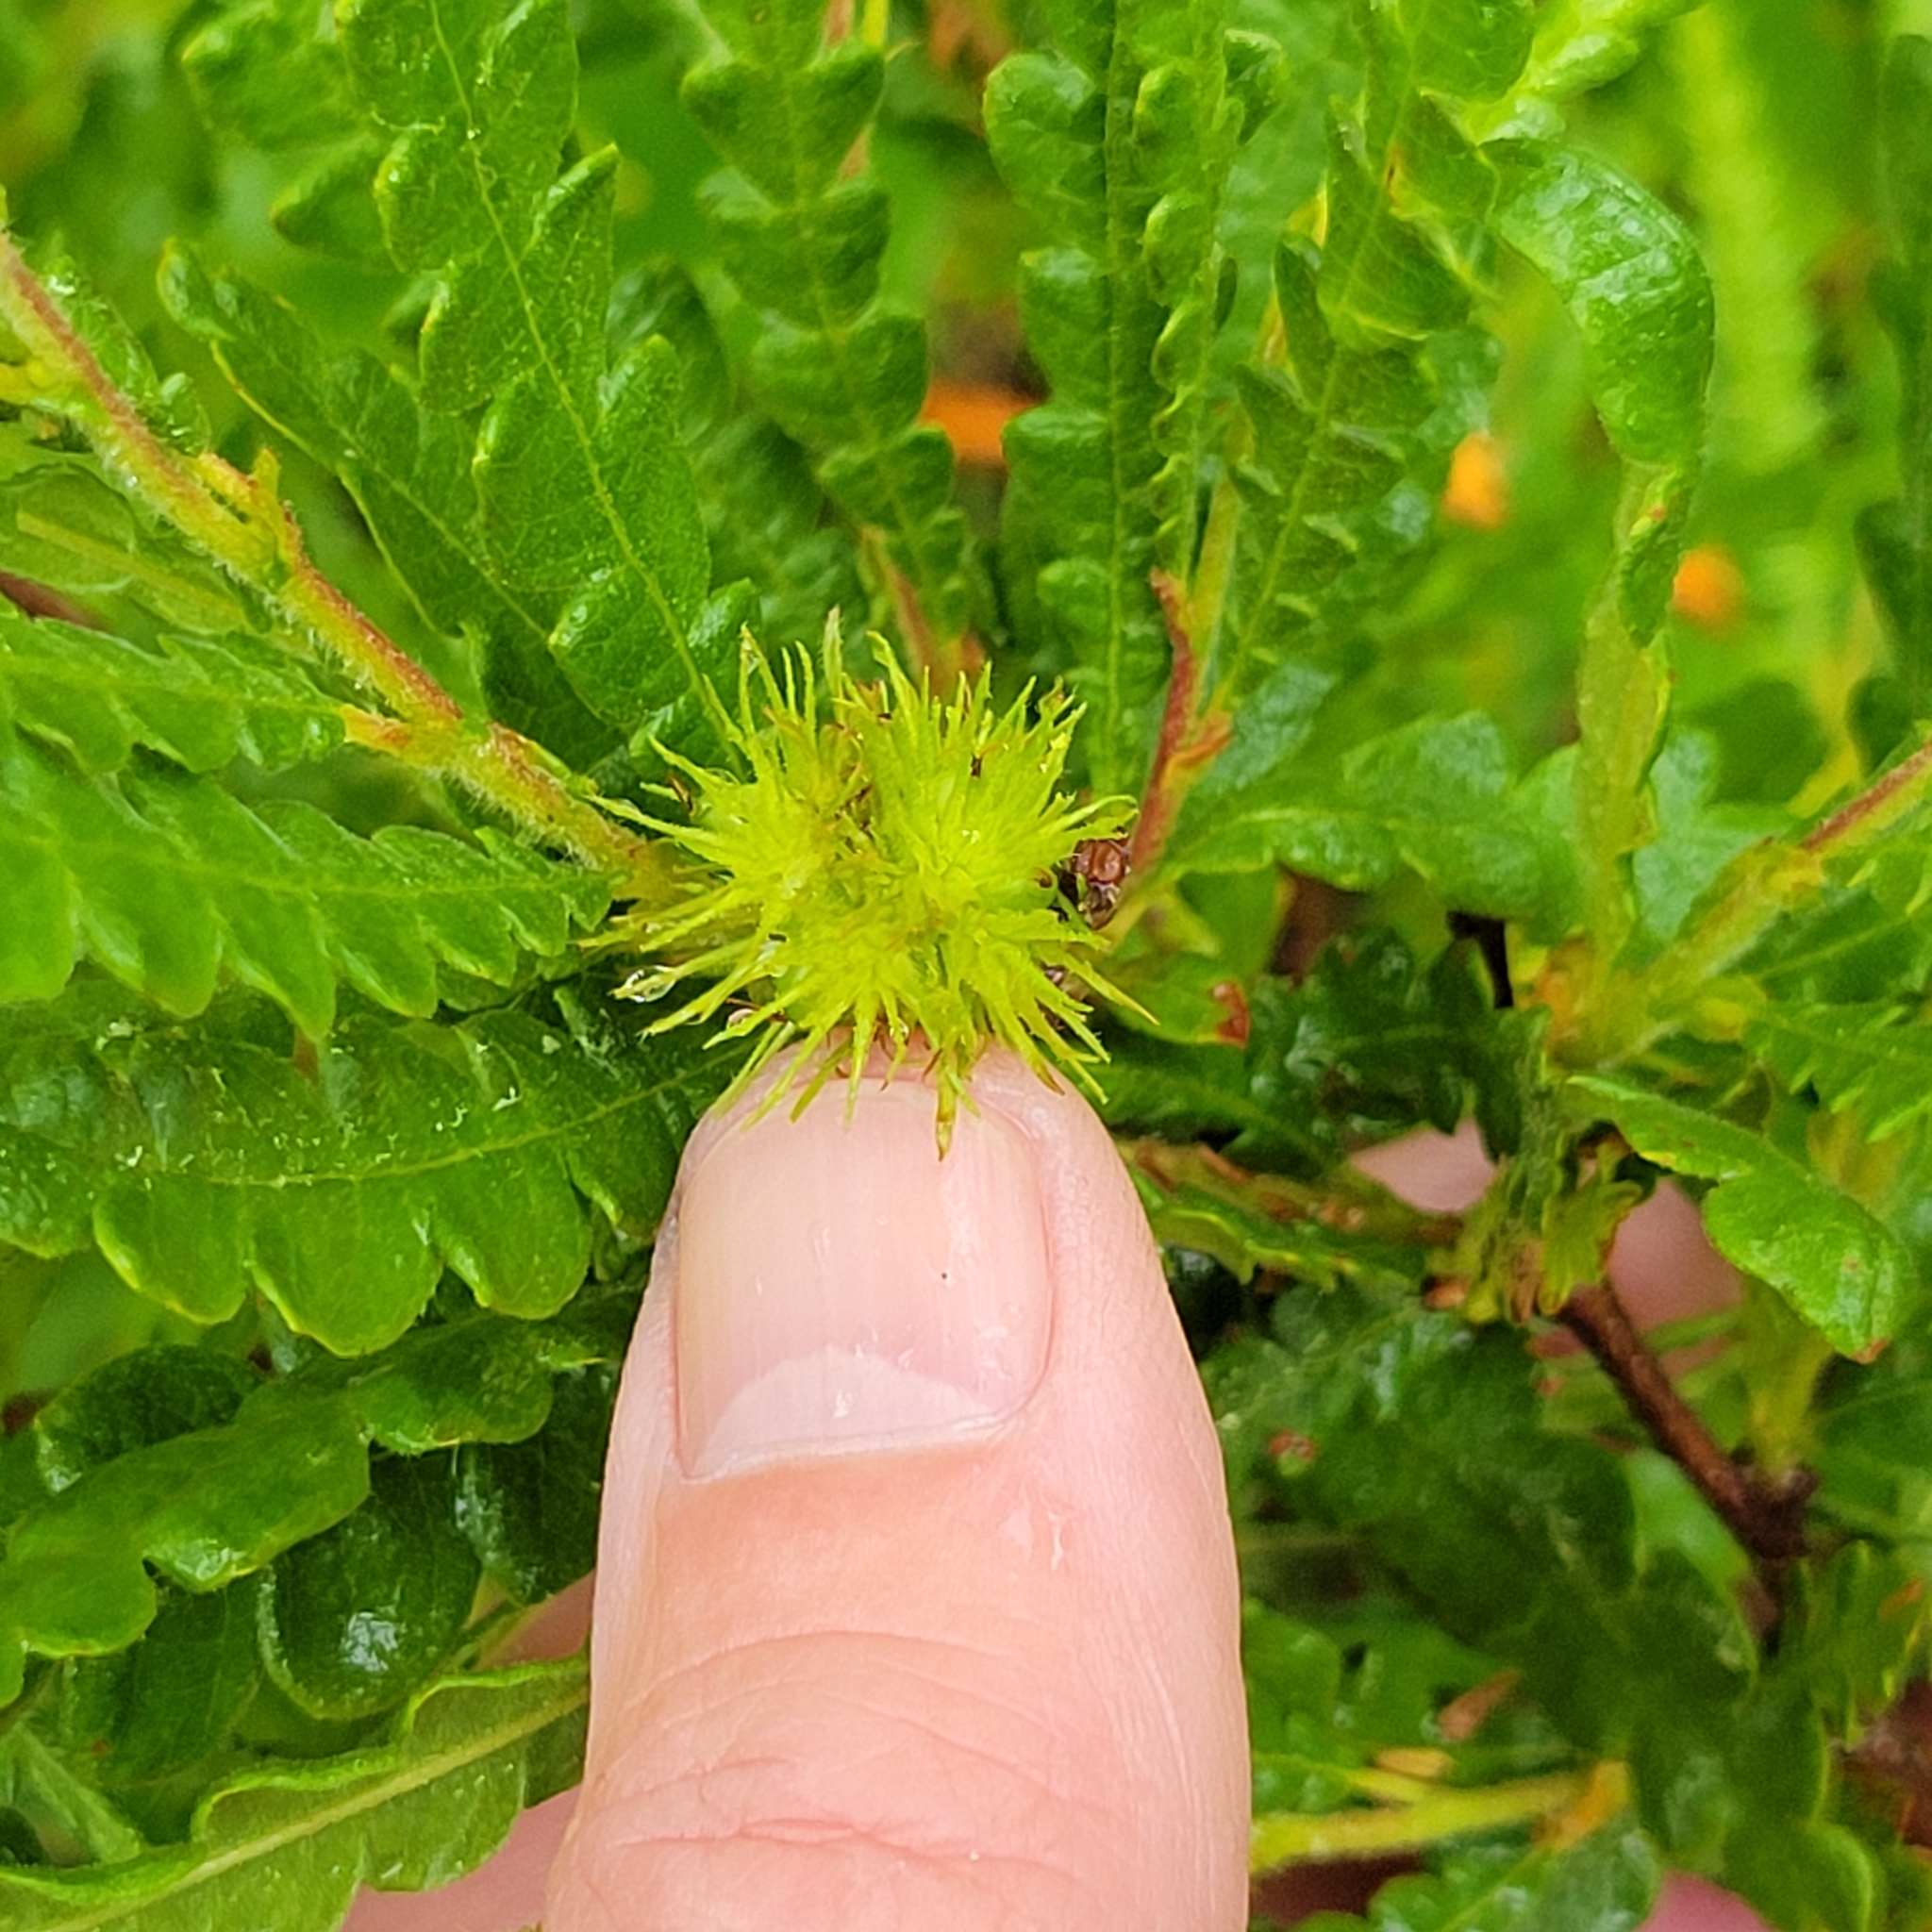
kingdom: Plantae
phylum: Tracheophyta
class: Magnoliopsida
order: Fagales
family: Myricaceae
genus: Comptonia
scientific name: Comptonia peregrina
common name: Sweet-fern
